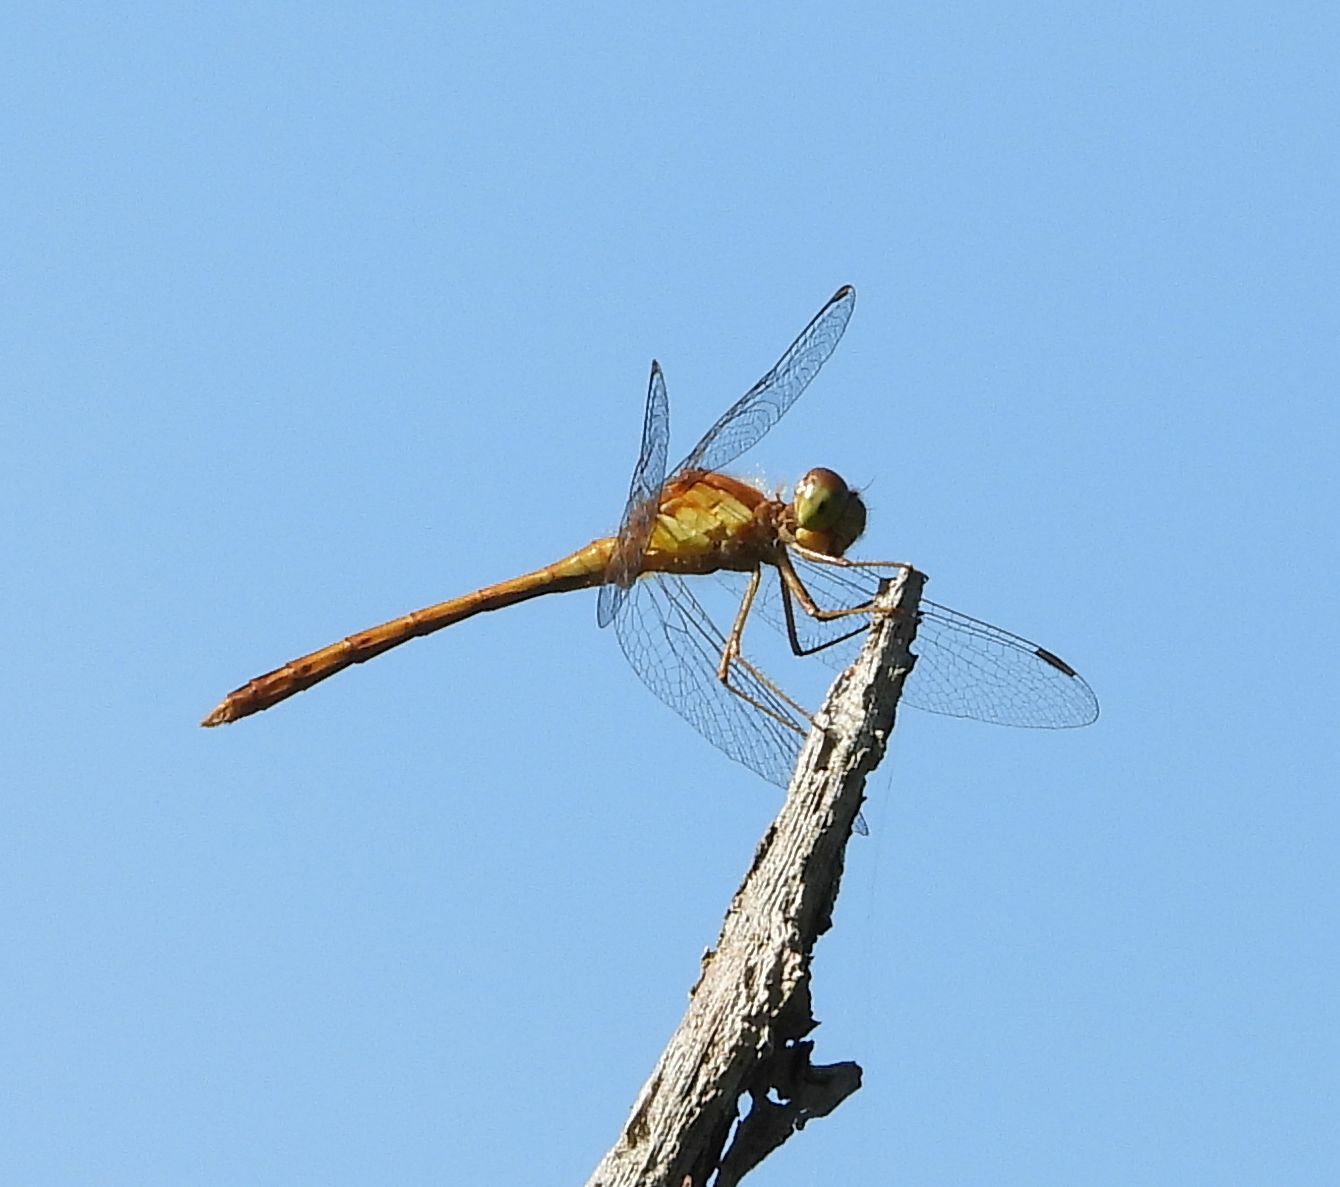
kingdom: Animalia
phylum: Arthropoda
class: Insecta
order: Odonata
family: Libellulidae
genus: Sympetrum
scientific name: Sympetrum vicinum
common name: Autumn meadowhawk
